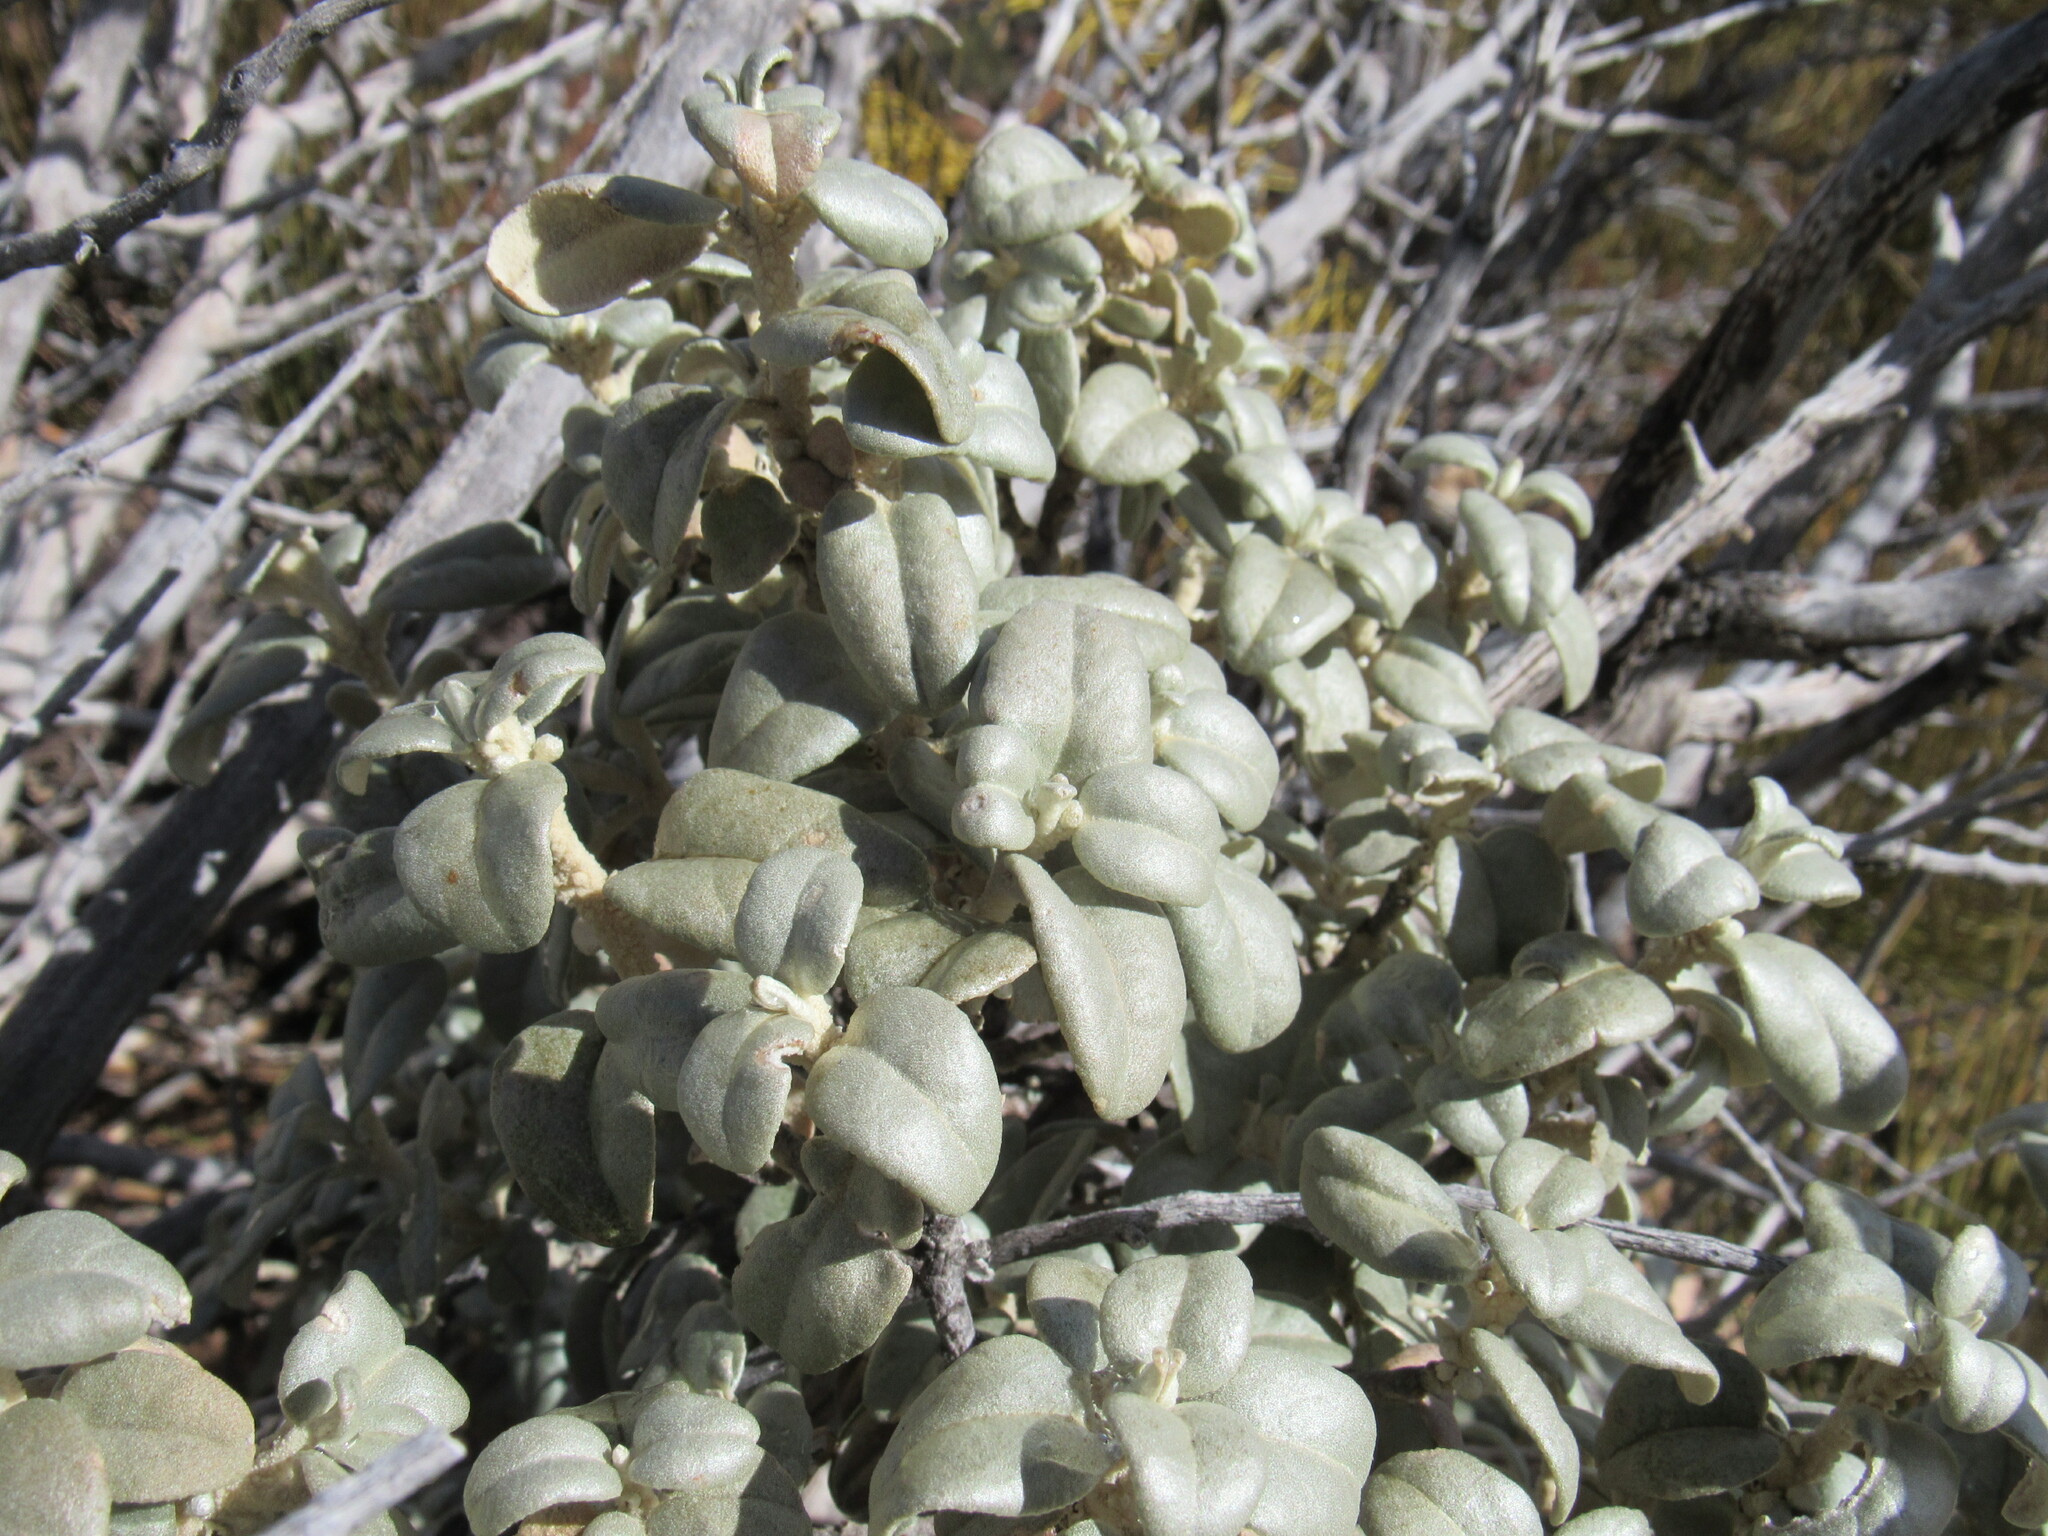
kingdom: Plantae
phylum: Tracheophyta
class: Magnoliopsida
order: Rosales
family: Elaeagnaceae
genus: Shepherdia
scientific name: Shepherdia rotundifolia
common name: Silverscale
